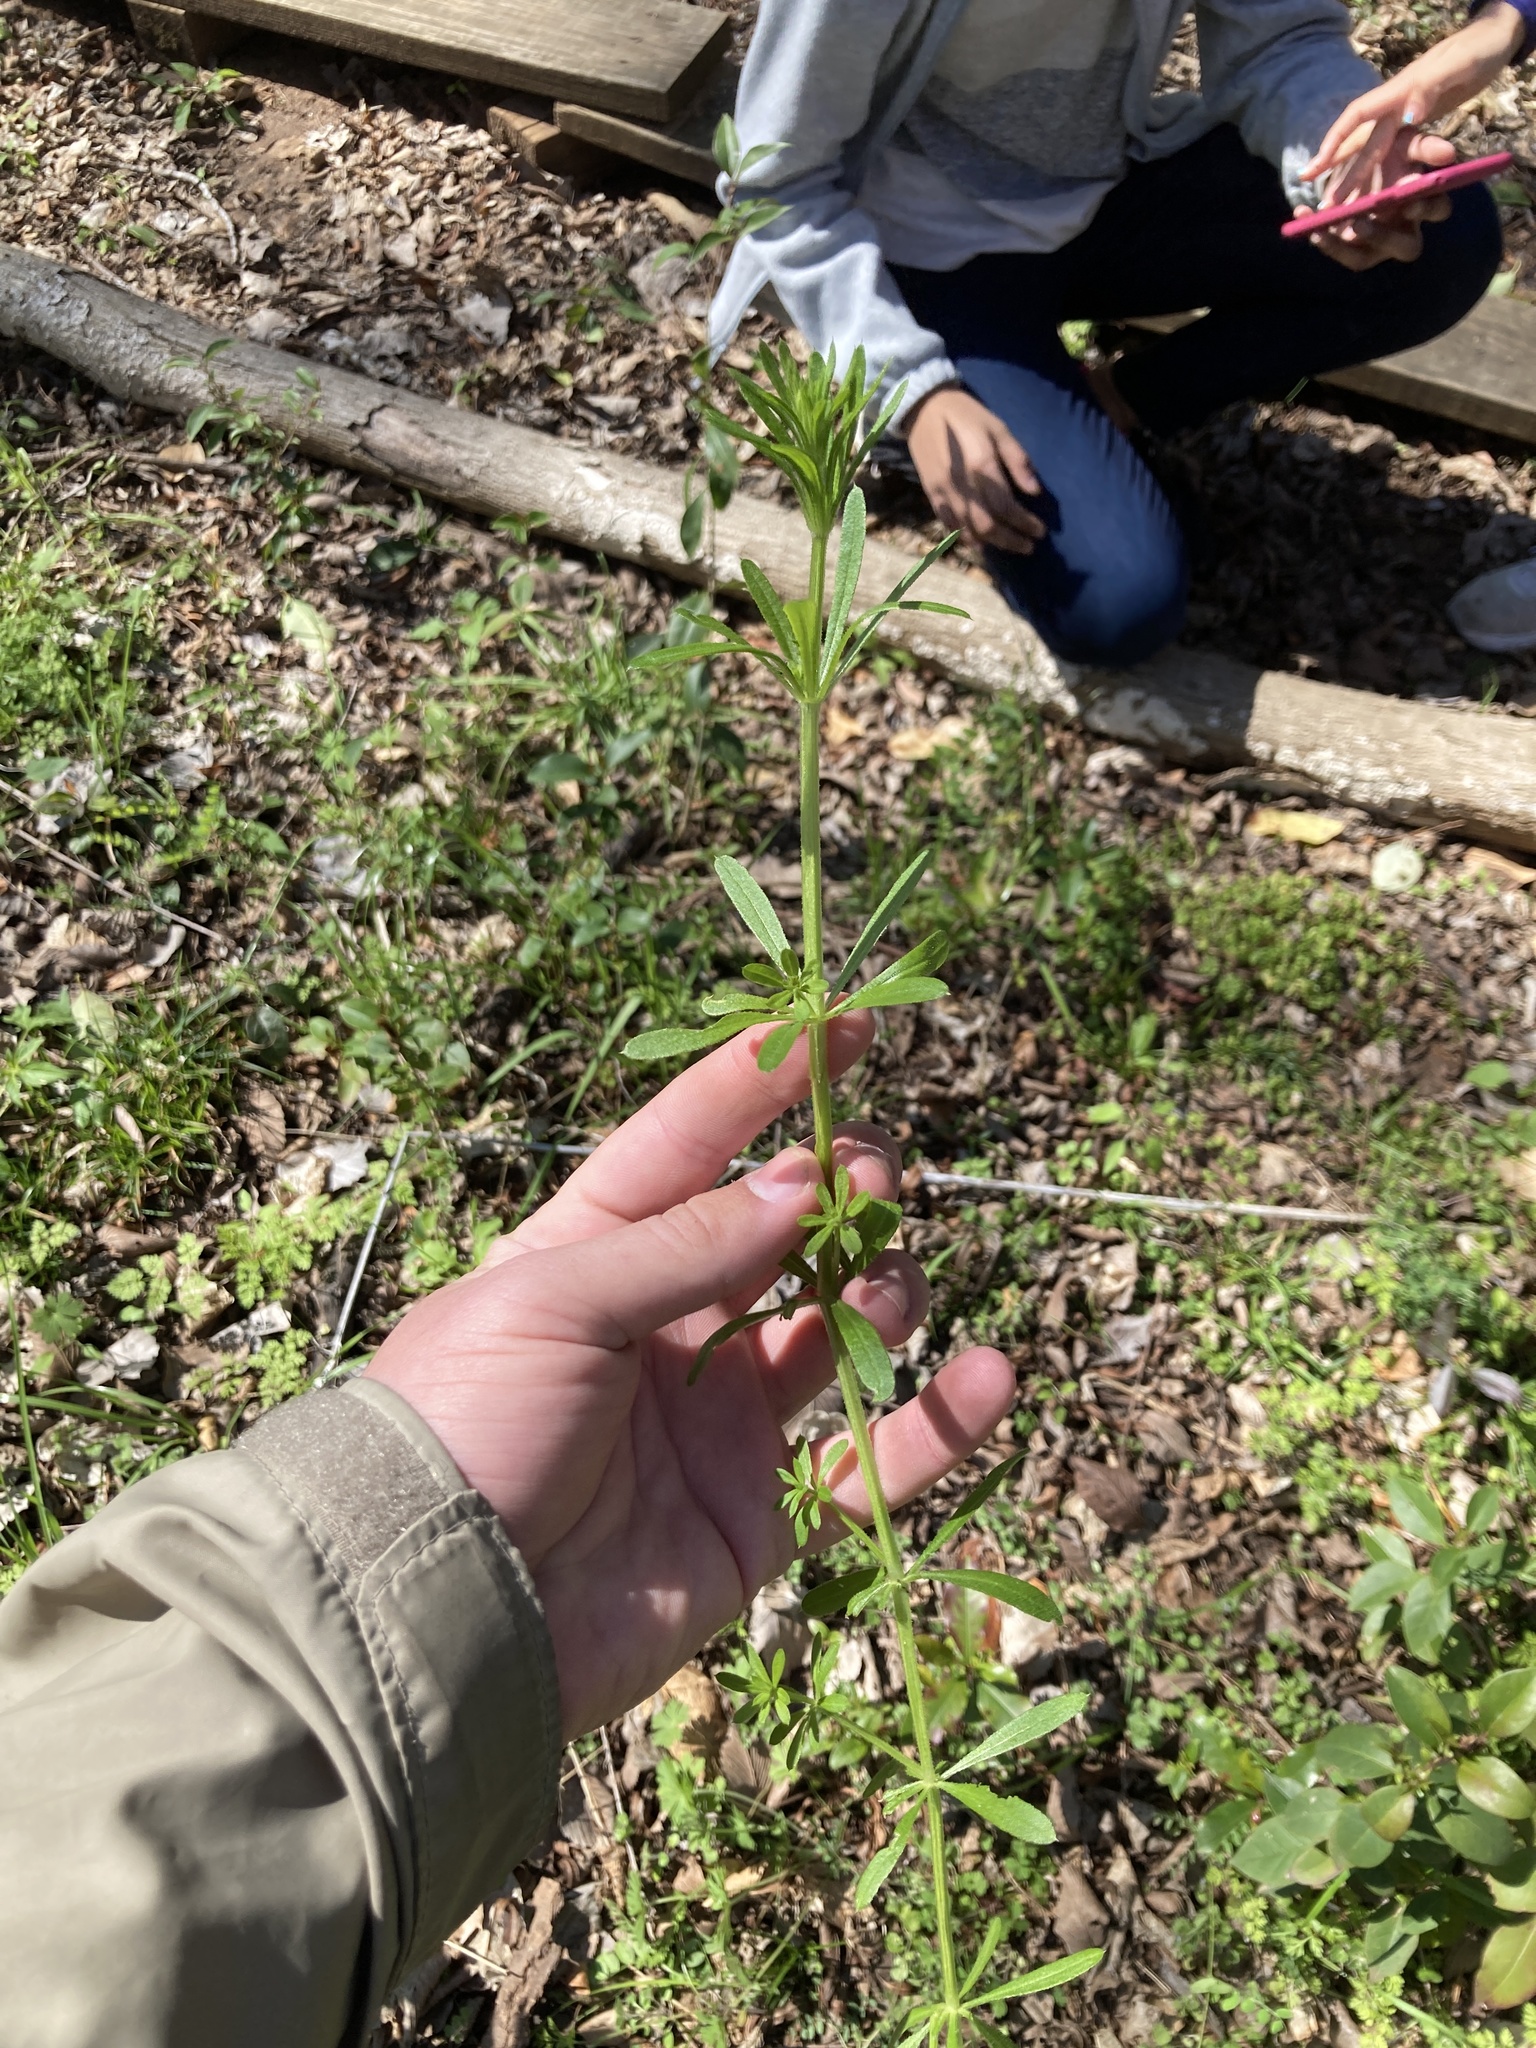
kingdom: Plantae
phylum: Tracheophyta
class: Magnoliopsida
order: Gentianales
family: Rubiaceae
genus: Galium
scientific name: Galium aparine
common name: Cleavers
